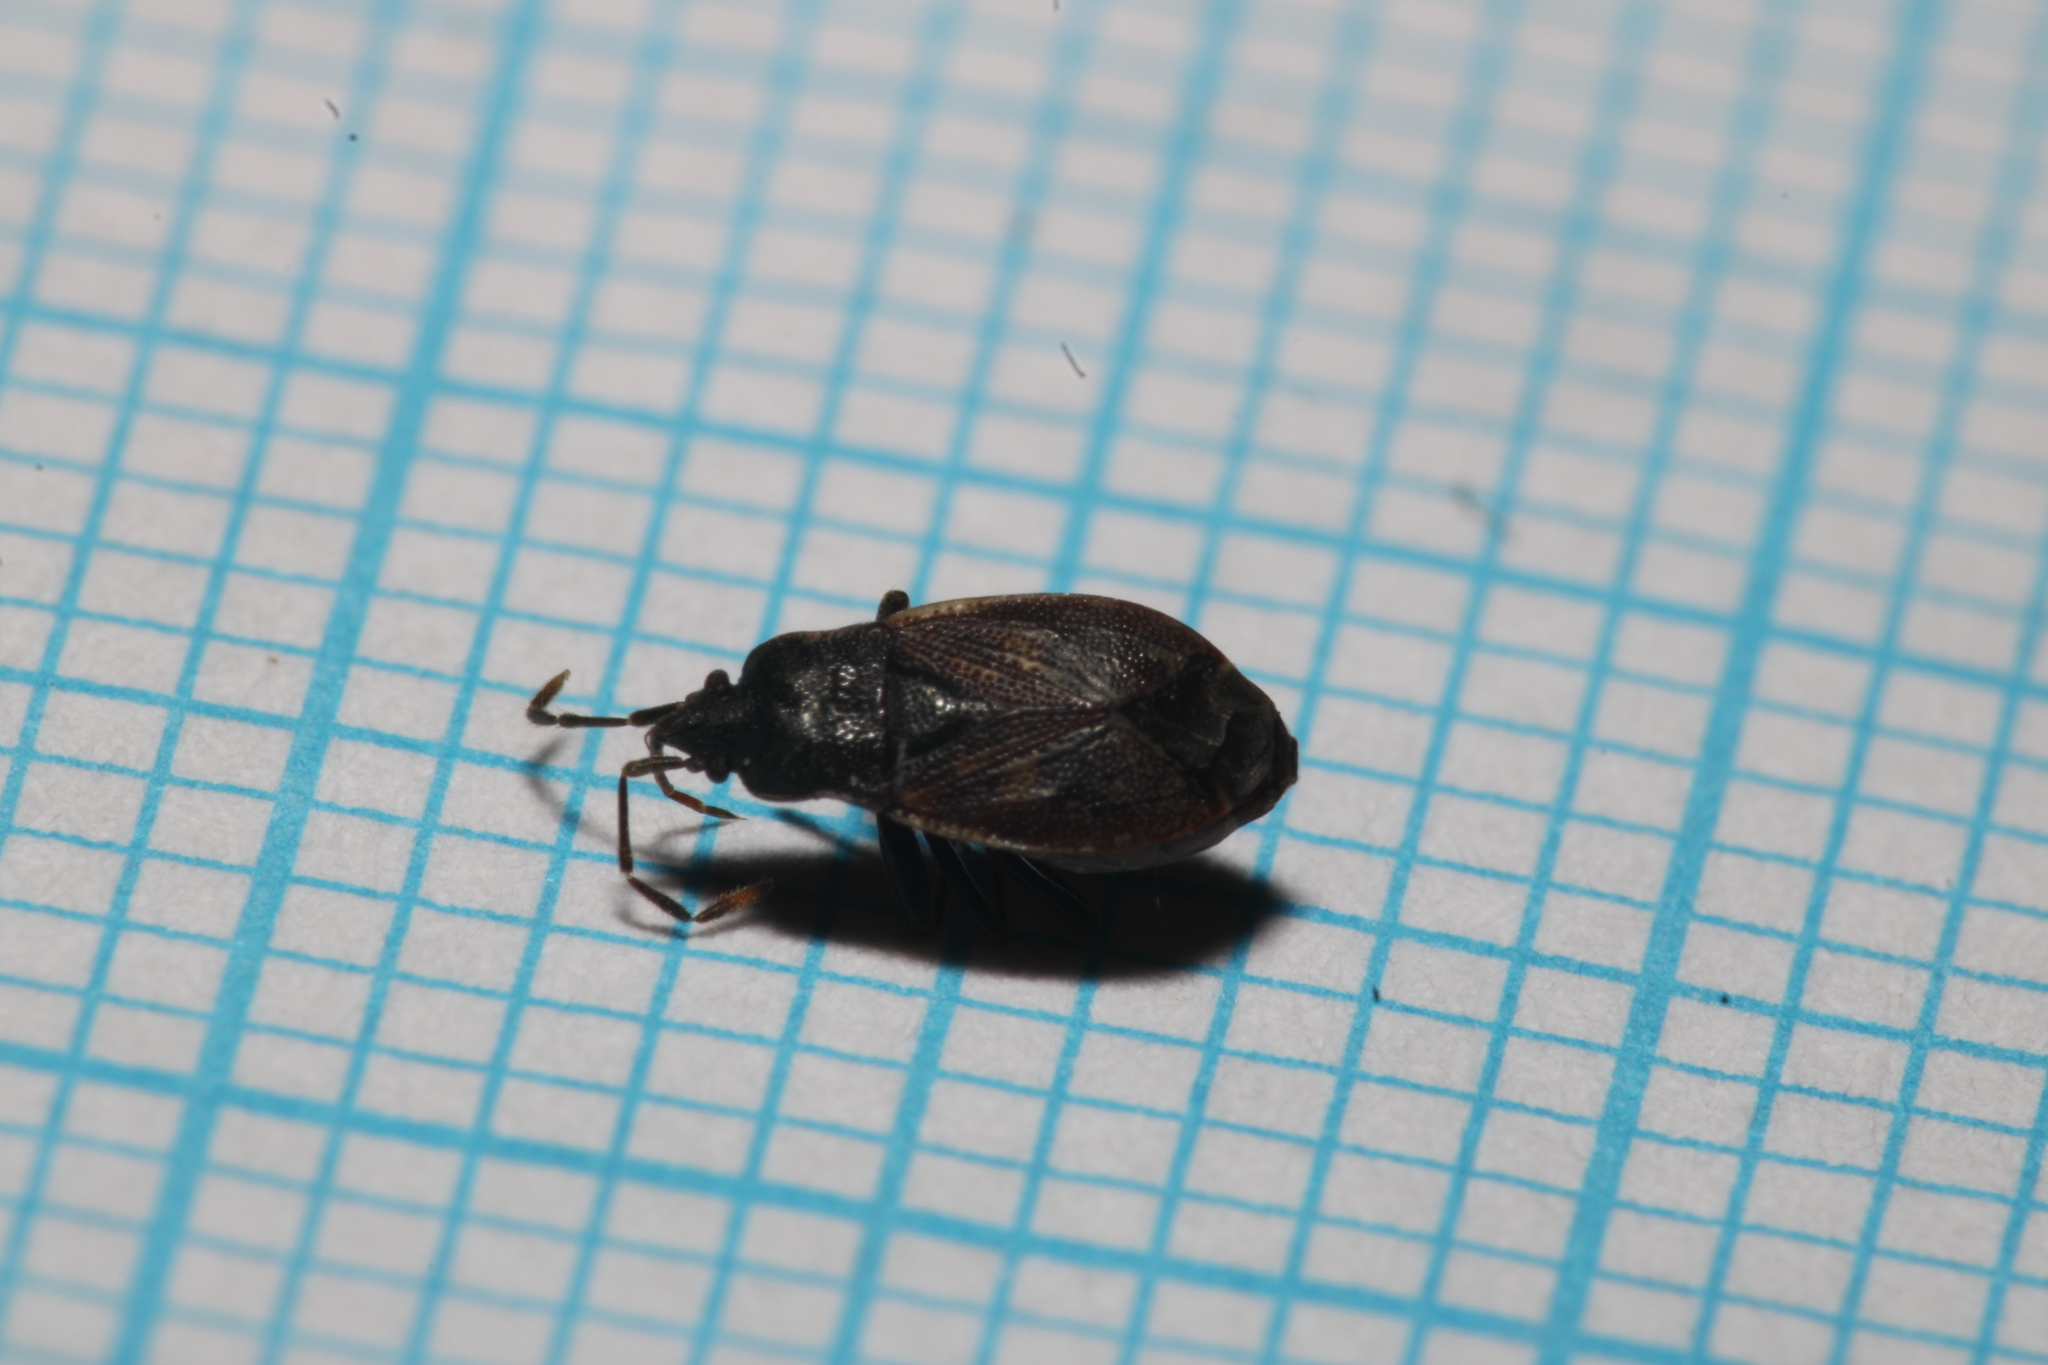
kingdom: Animalia
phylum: Arthropoda
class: Insecta
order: Hemiptera
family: Rhyparochromidae
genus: Drymus
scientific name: Drymus brunneus
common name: Seed bug
